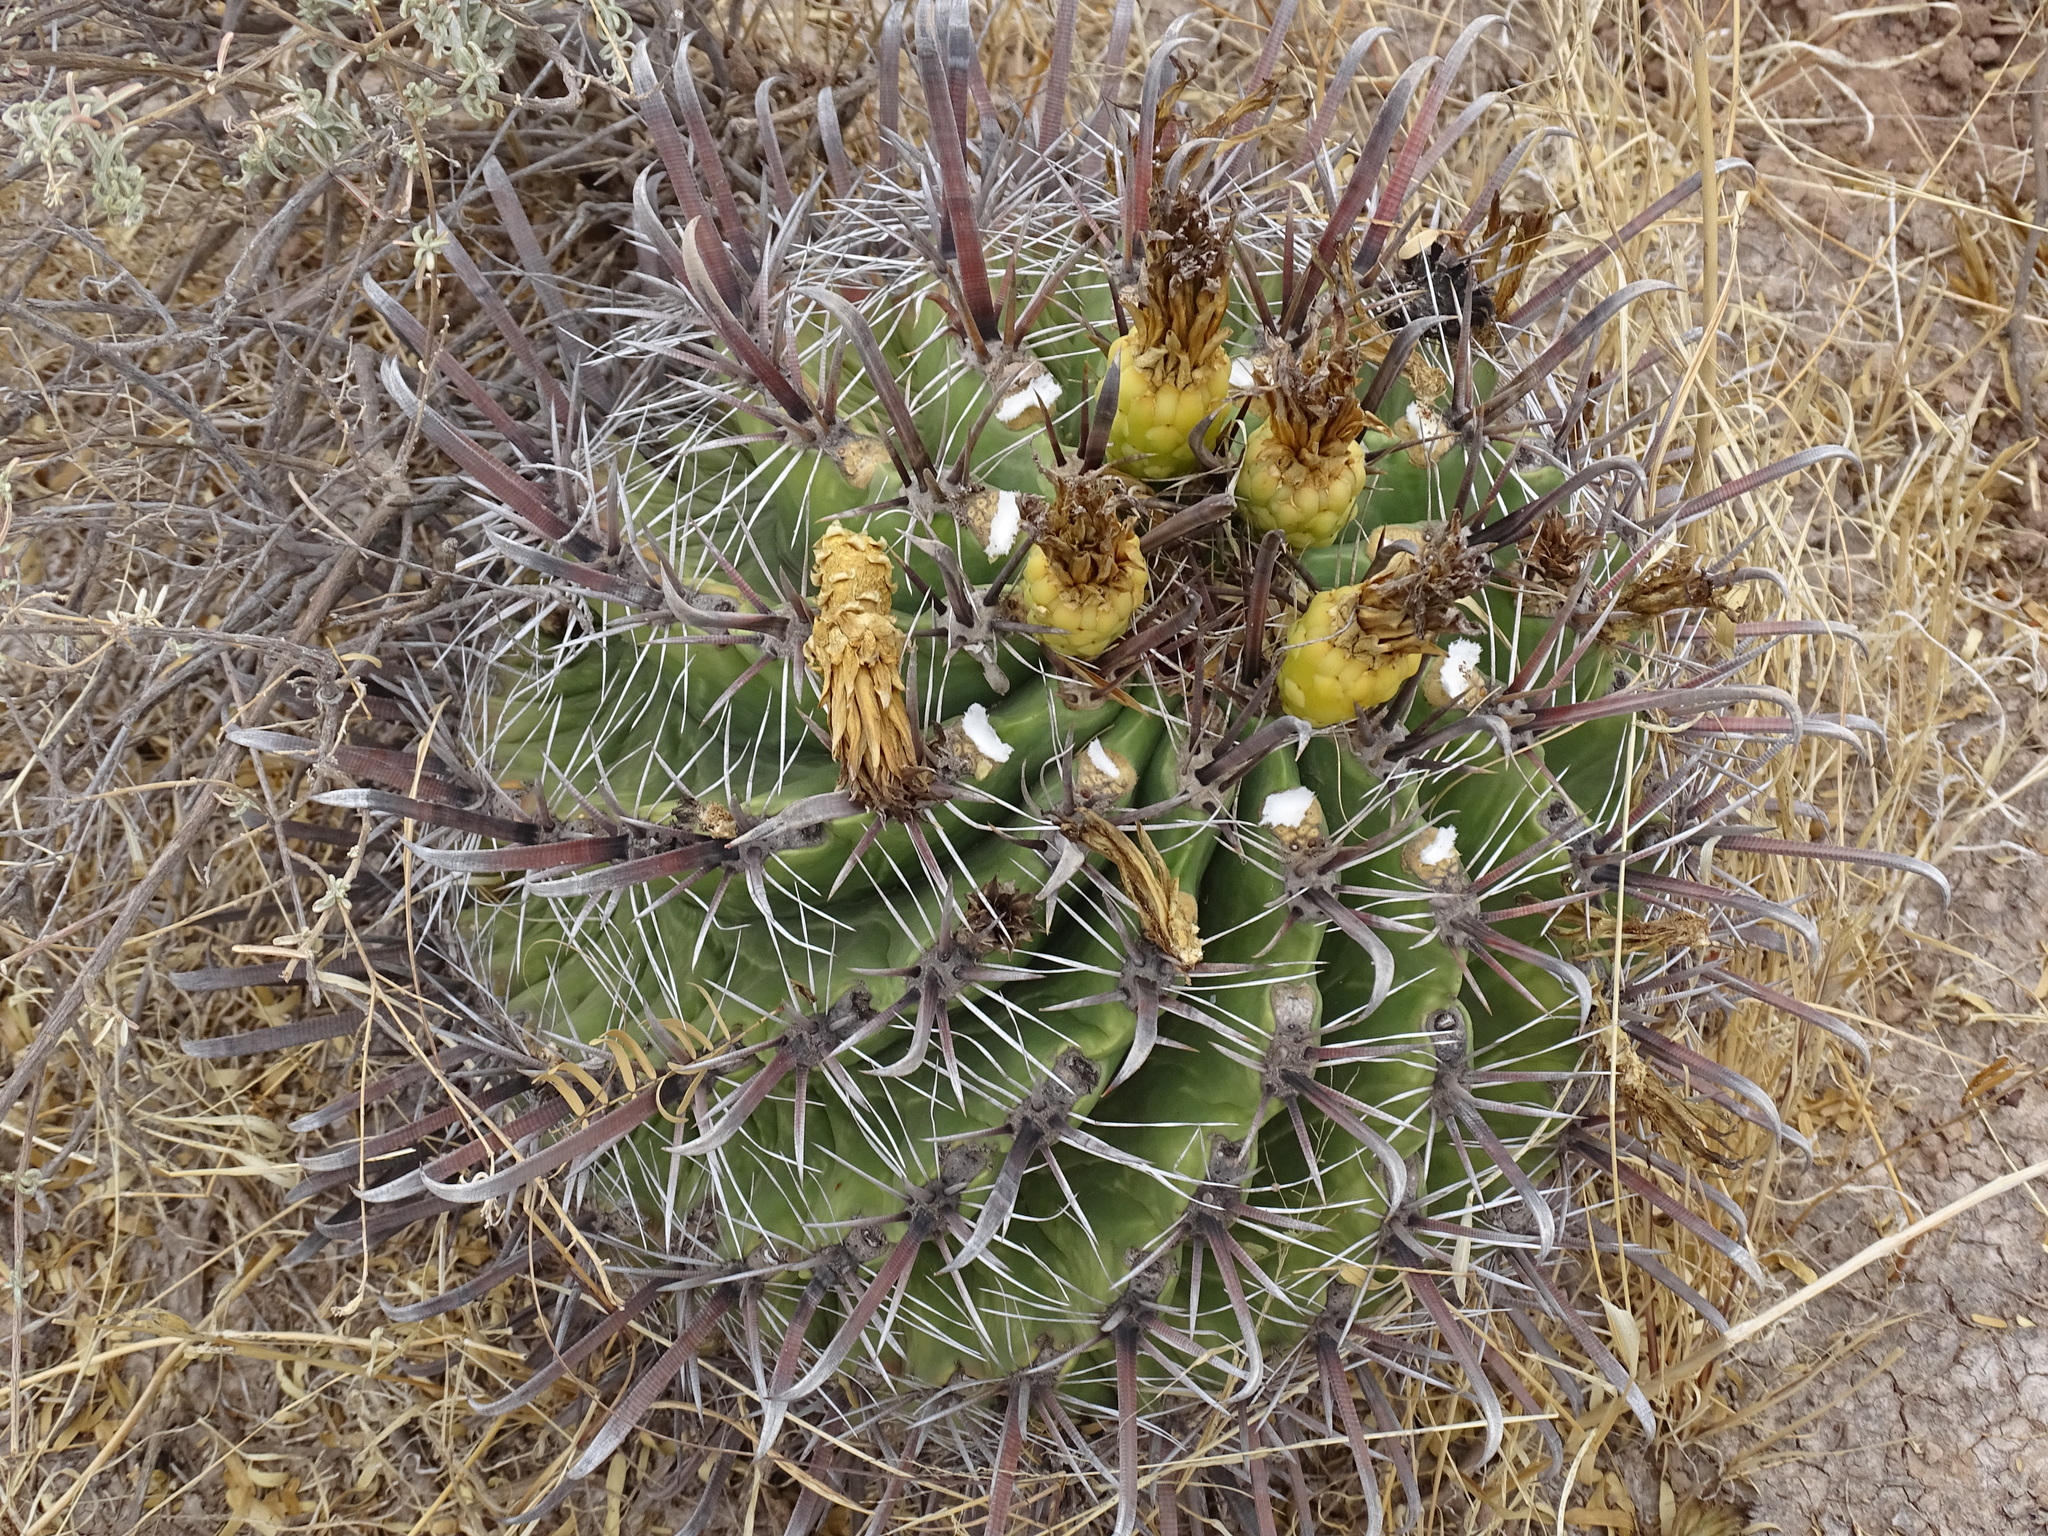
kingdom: Plantae
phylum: Tracheophyta
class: Magnoliopsida
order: Caryophyllales
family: Cactaceae
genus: Ferocactus
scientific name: Ferocactus wislizeni
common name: Candy barrel cactus
